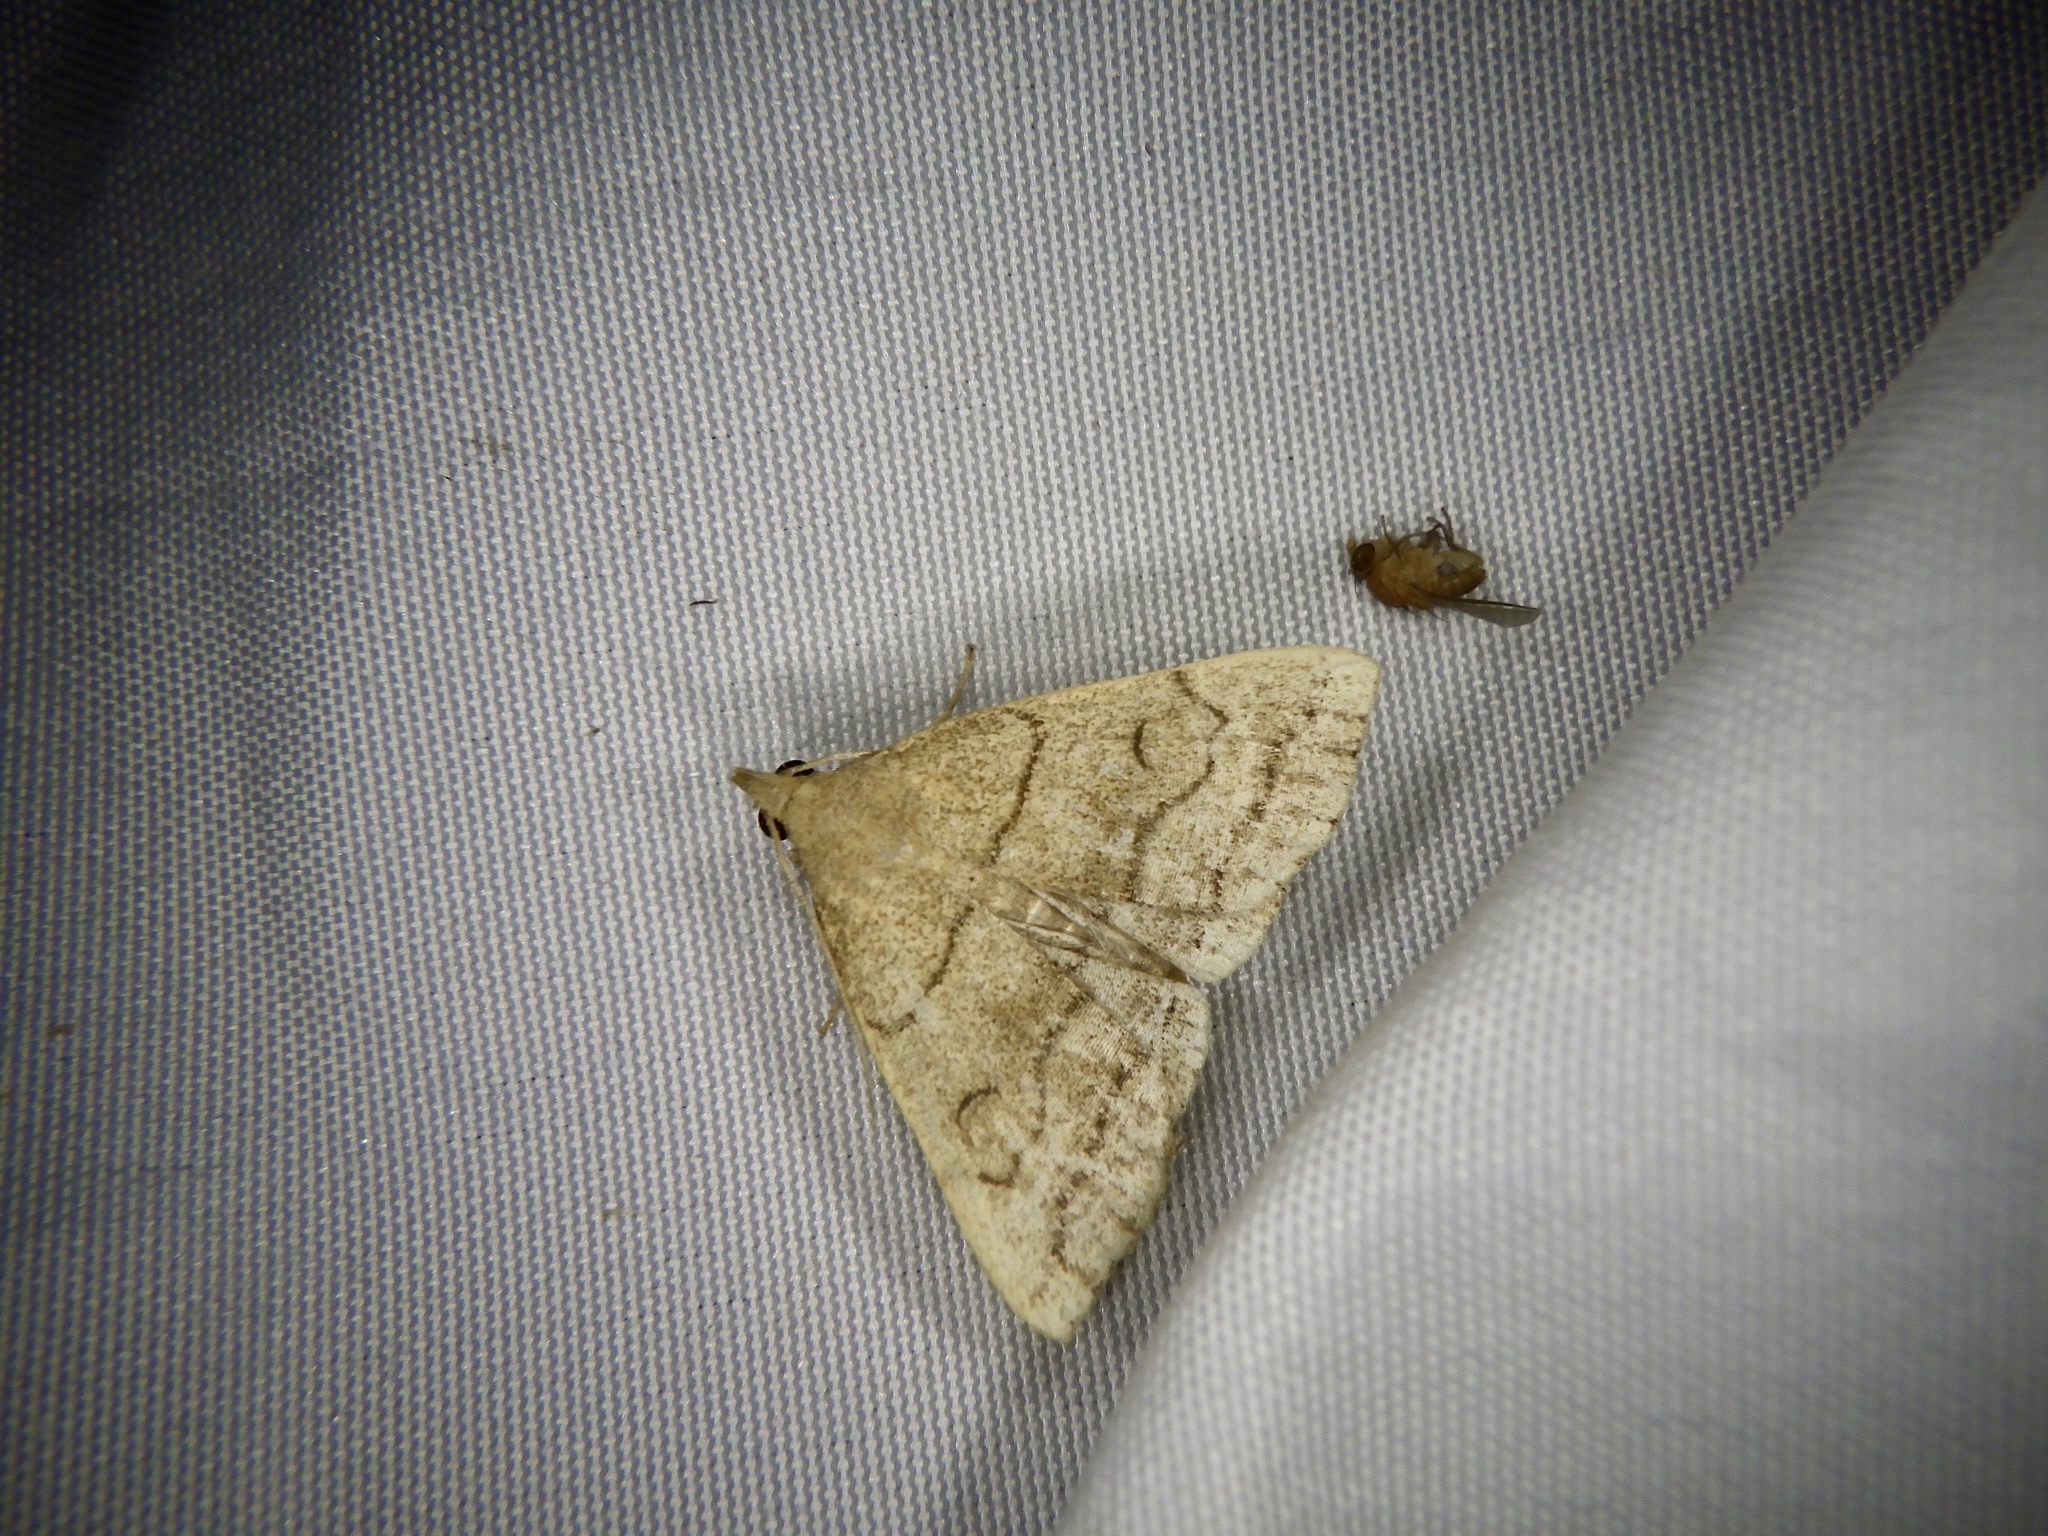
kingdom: Animalia
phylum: Arthropoda
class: Insecta
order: Lepidoptera
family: Erebidae
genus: Herminia
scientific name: Herminia arenosa
